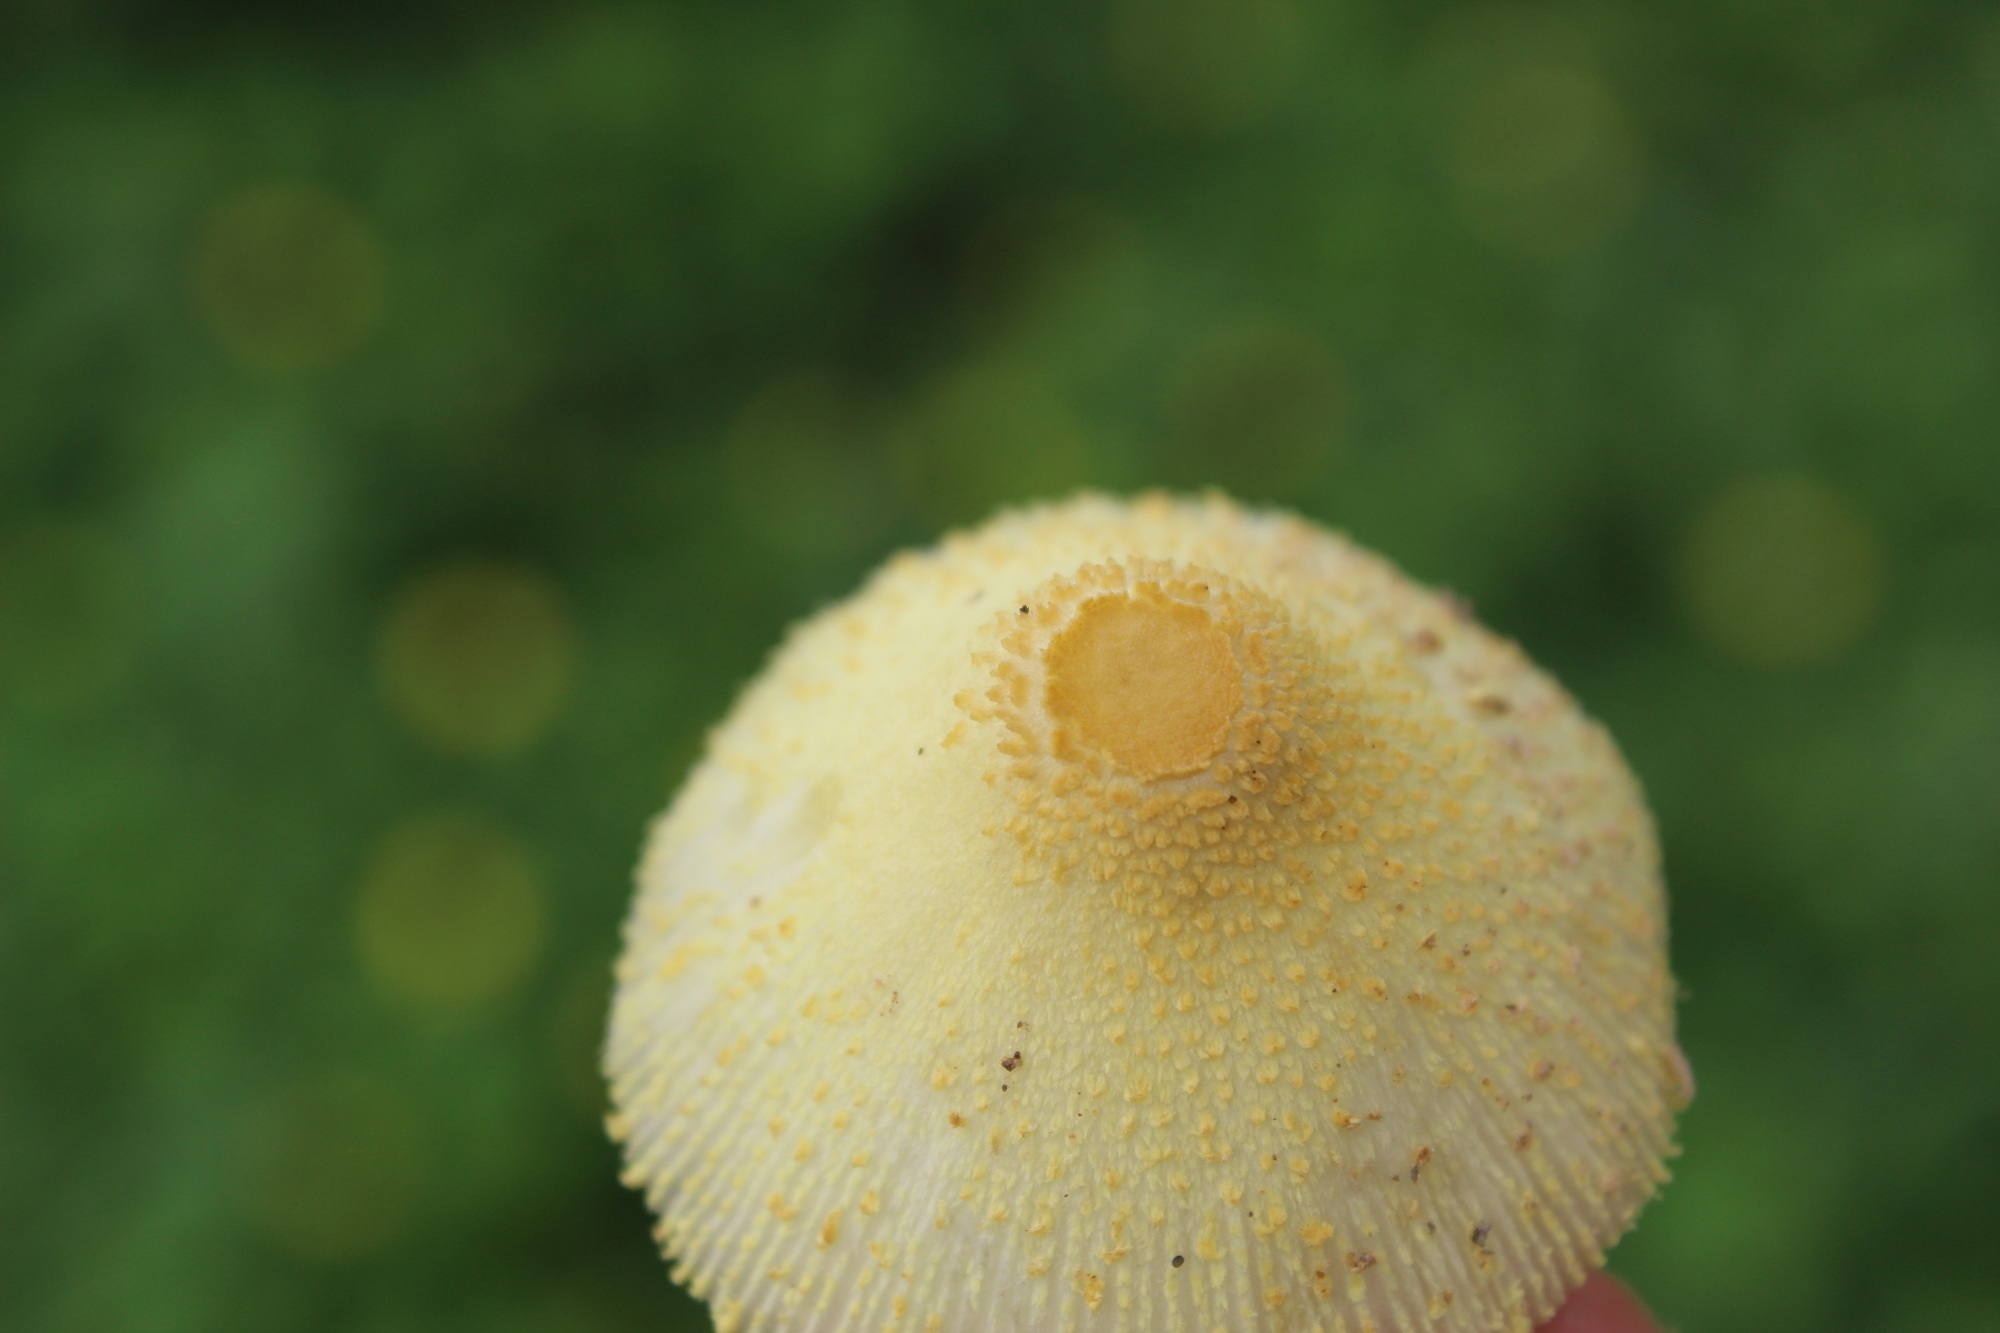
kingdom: Fungi
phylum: Basidiomycota
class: Agaricomycetes
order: Agaricales
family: Agaricaceae
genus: Leucocoprinus
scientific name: Leucocoprinus birnbaumii
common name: Plantpot dapperling
